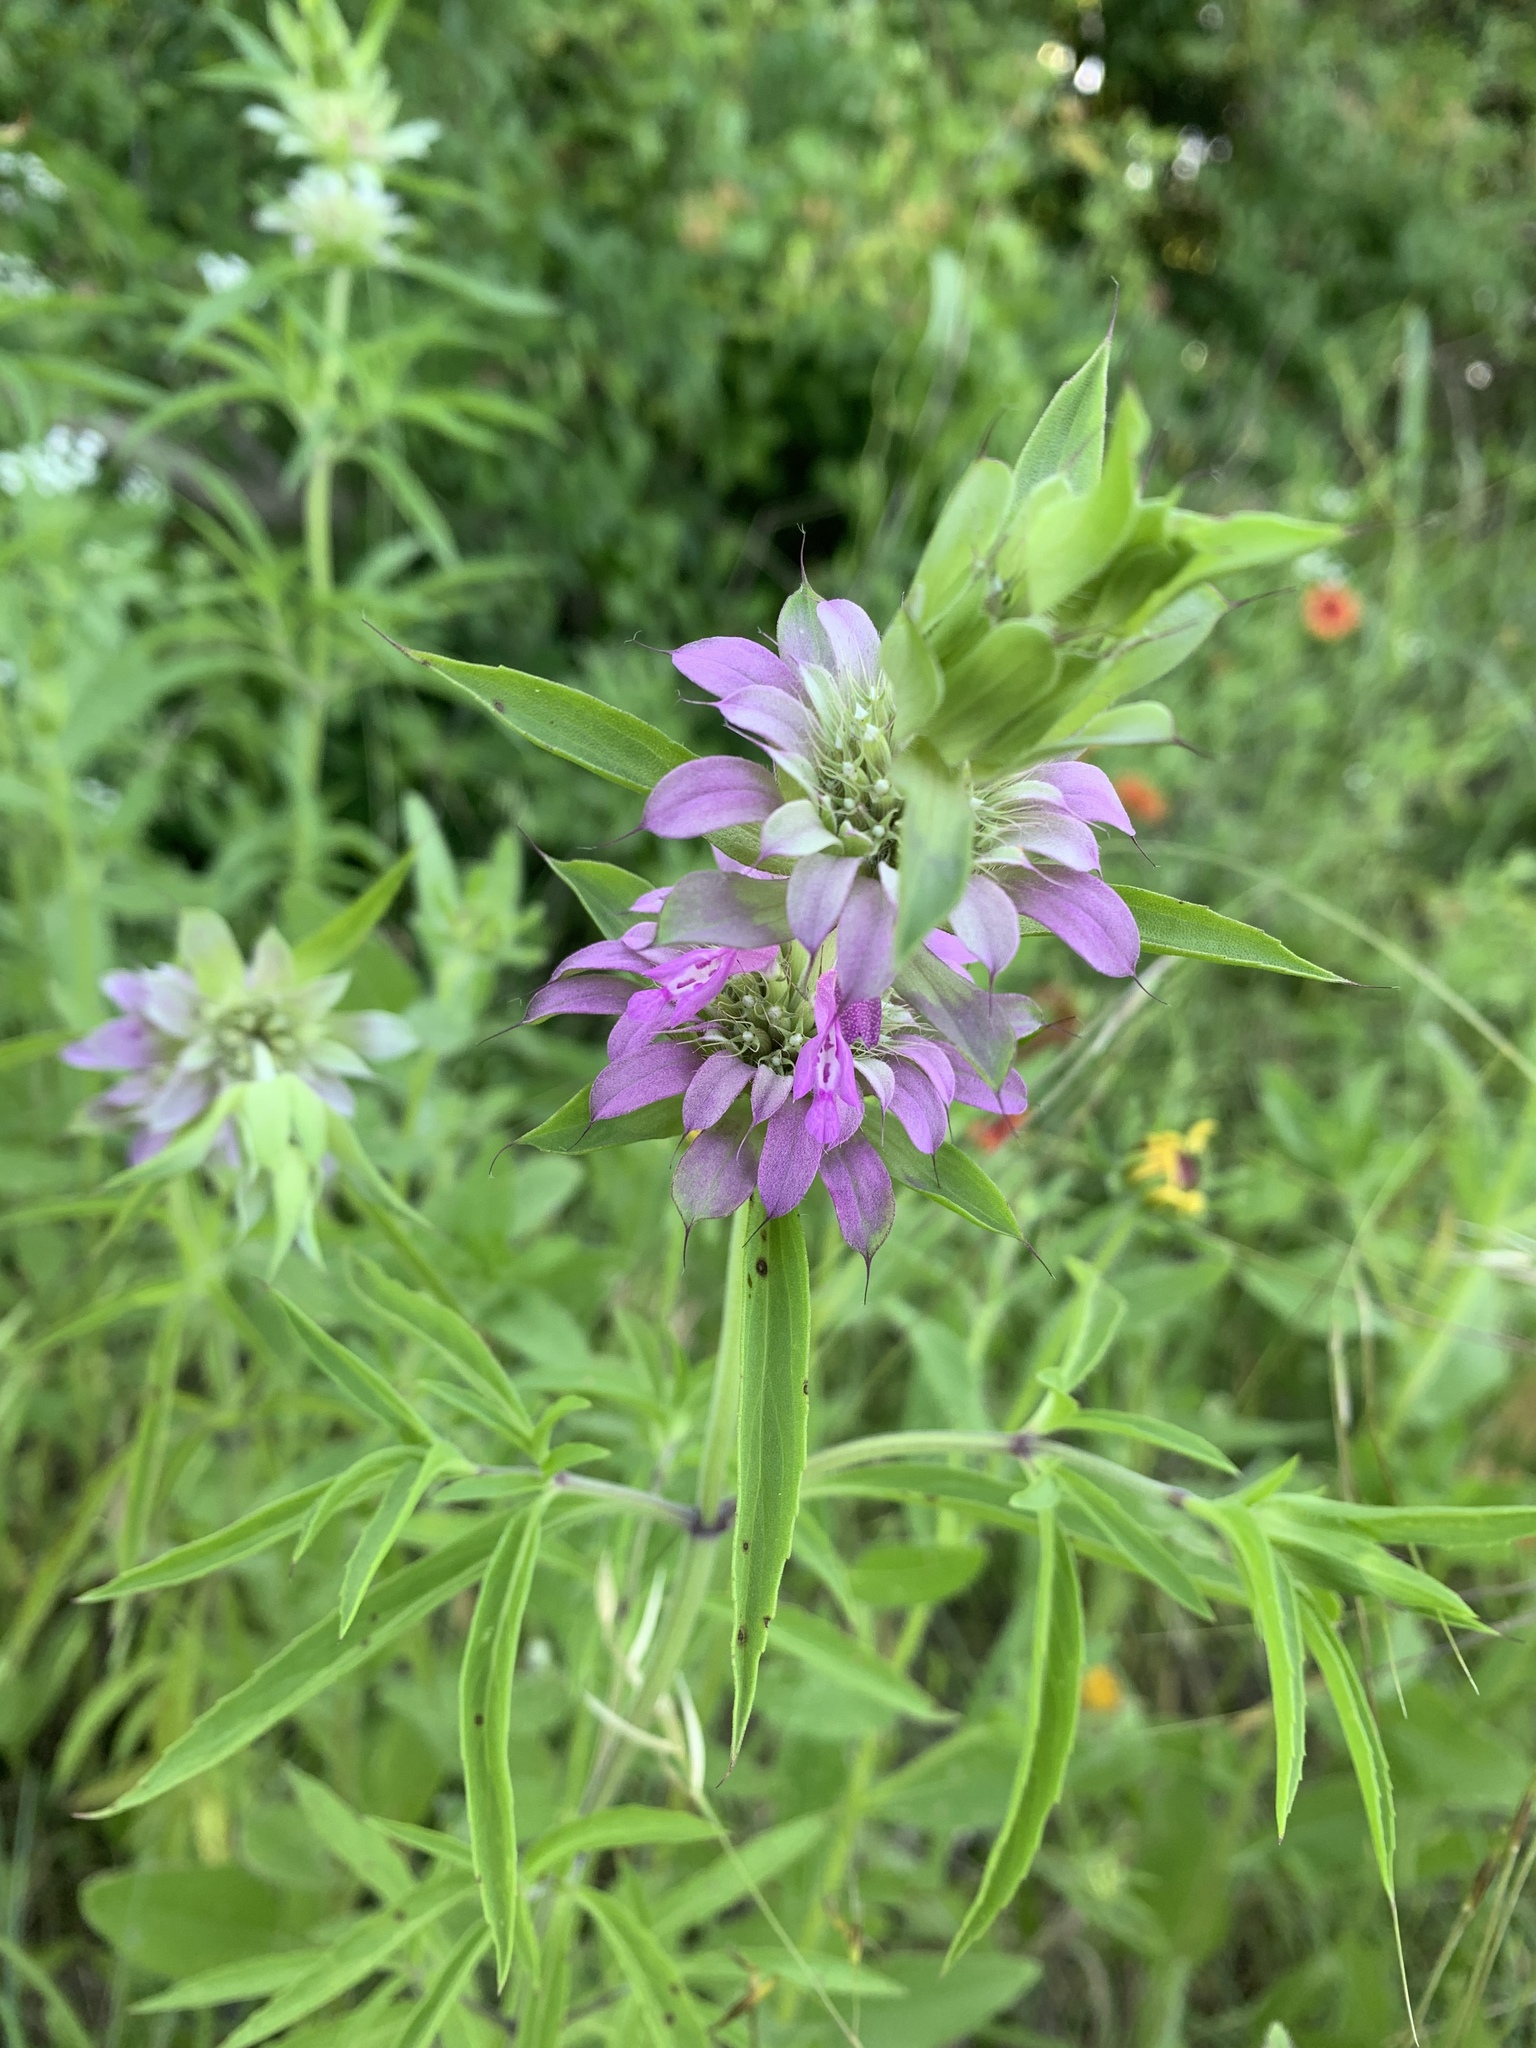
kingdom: Plantae
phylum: Tracheophyta
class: Magnoliopsida
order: Lamiales
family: Lamiaceae
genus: Monarda
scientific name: Monarda citriodora
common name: Lemon beebalm
